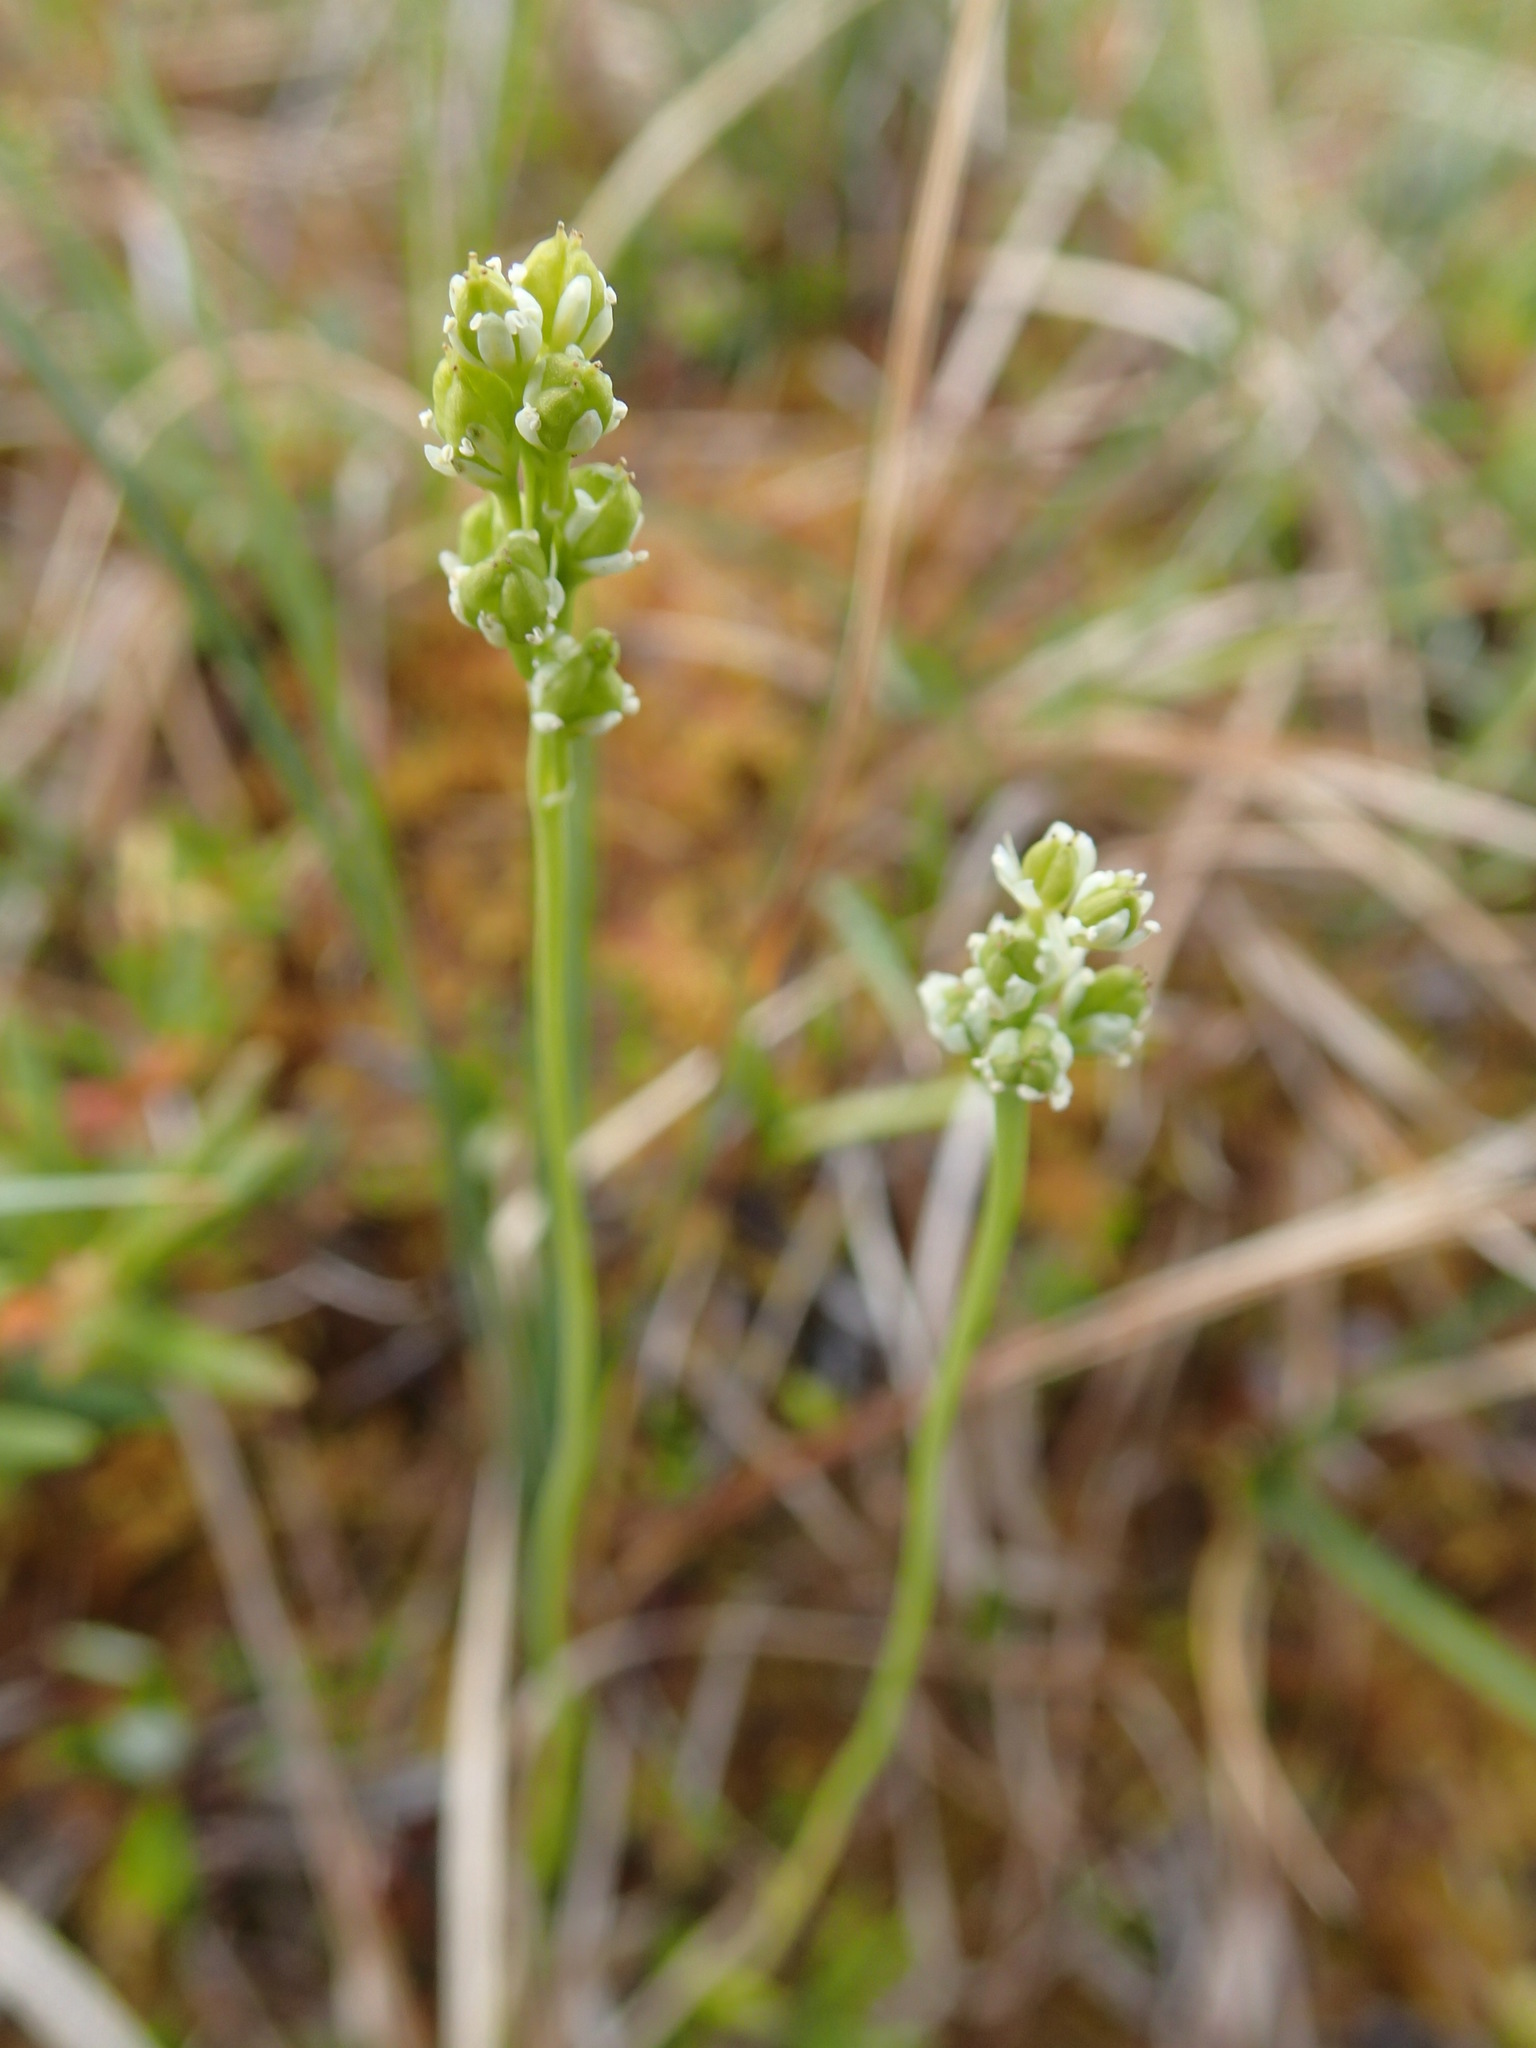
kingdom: Plantae
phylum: Tracheophyta
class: Liliopsida
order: Alismatales
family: Tofieldiaceae
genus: Tofieldia
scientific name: Tofieldia pusilla
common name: Scottish false asphodel
